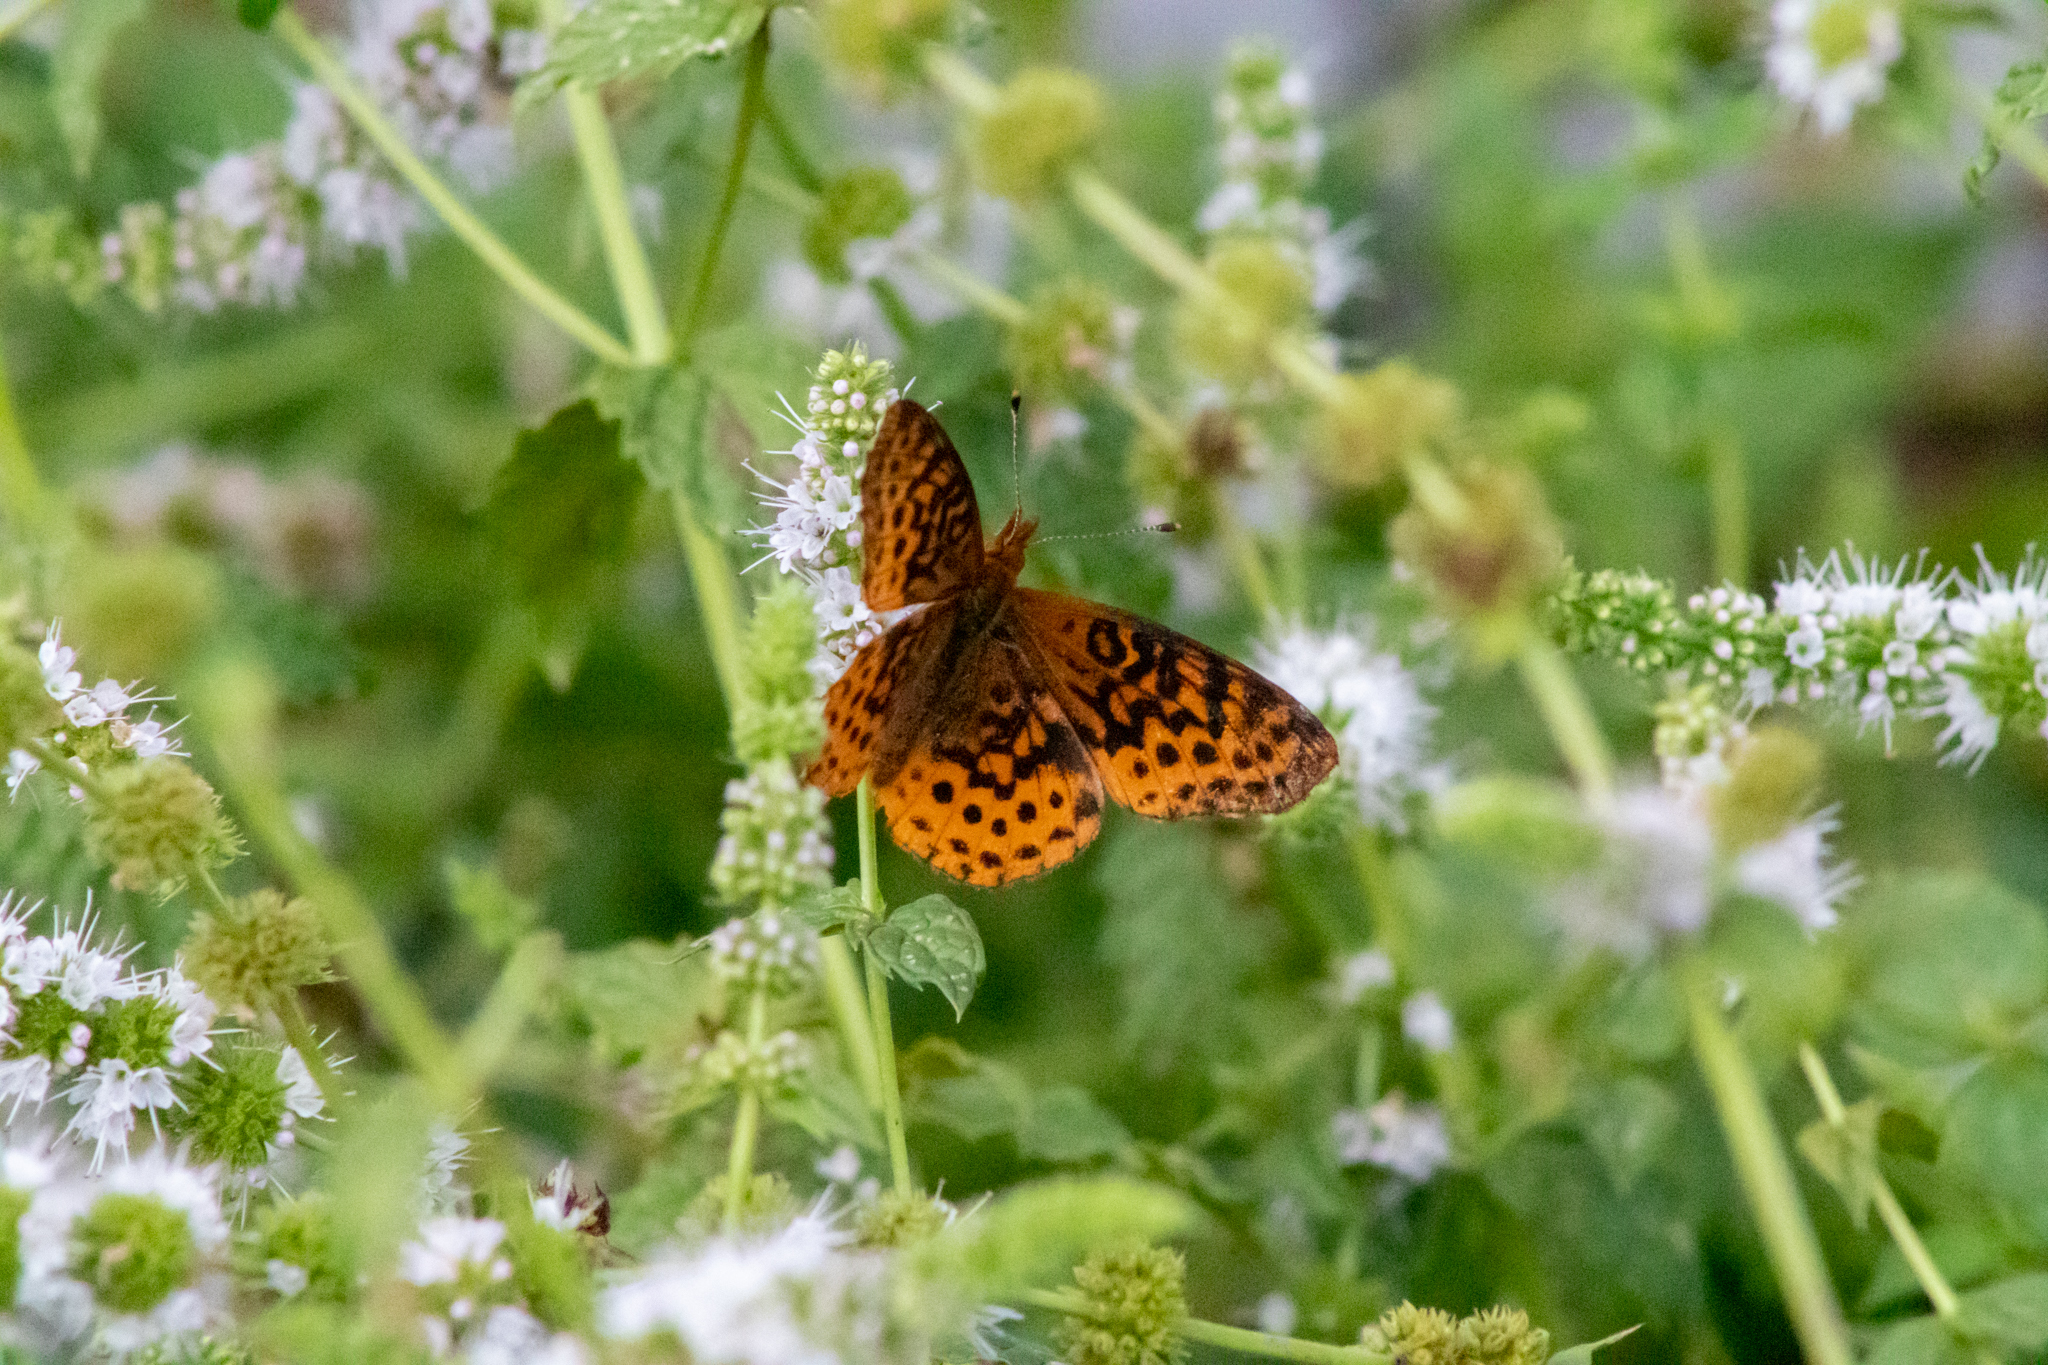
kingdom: Animalia
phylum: Arthropoda
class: Insecta
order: Lepidoptera
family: Nymphalidae
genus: Clossiana
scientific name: Clossiana toddi
